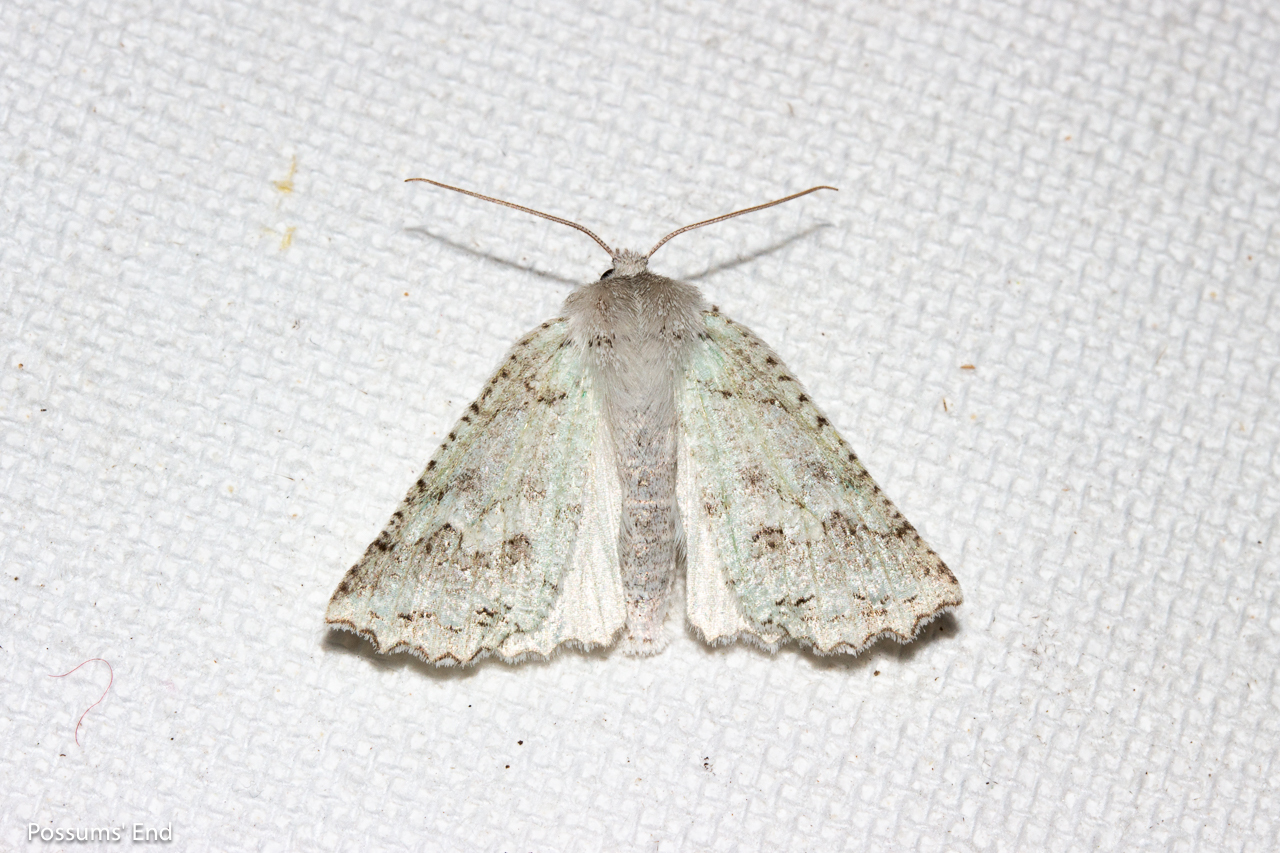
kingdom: Animalia
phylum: Arthropoda
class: Insecta
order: Lepidoptera
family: Geometridae
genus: Declana
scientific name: Declana niveata
